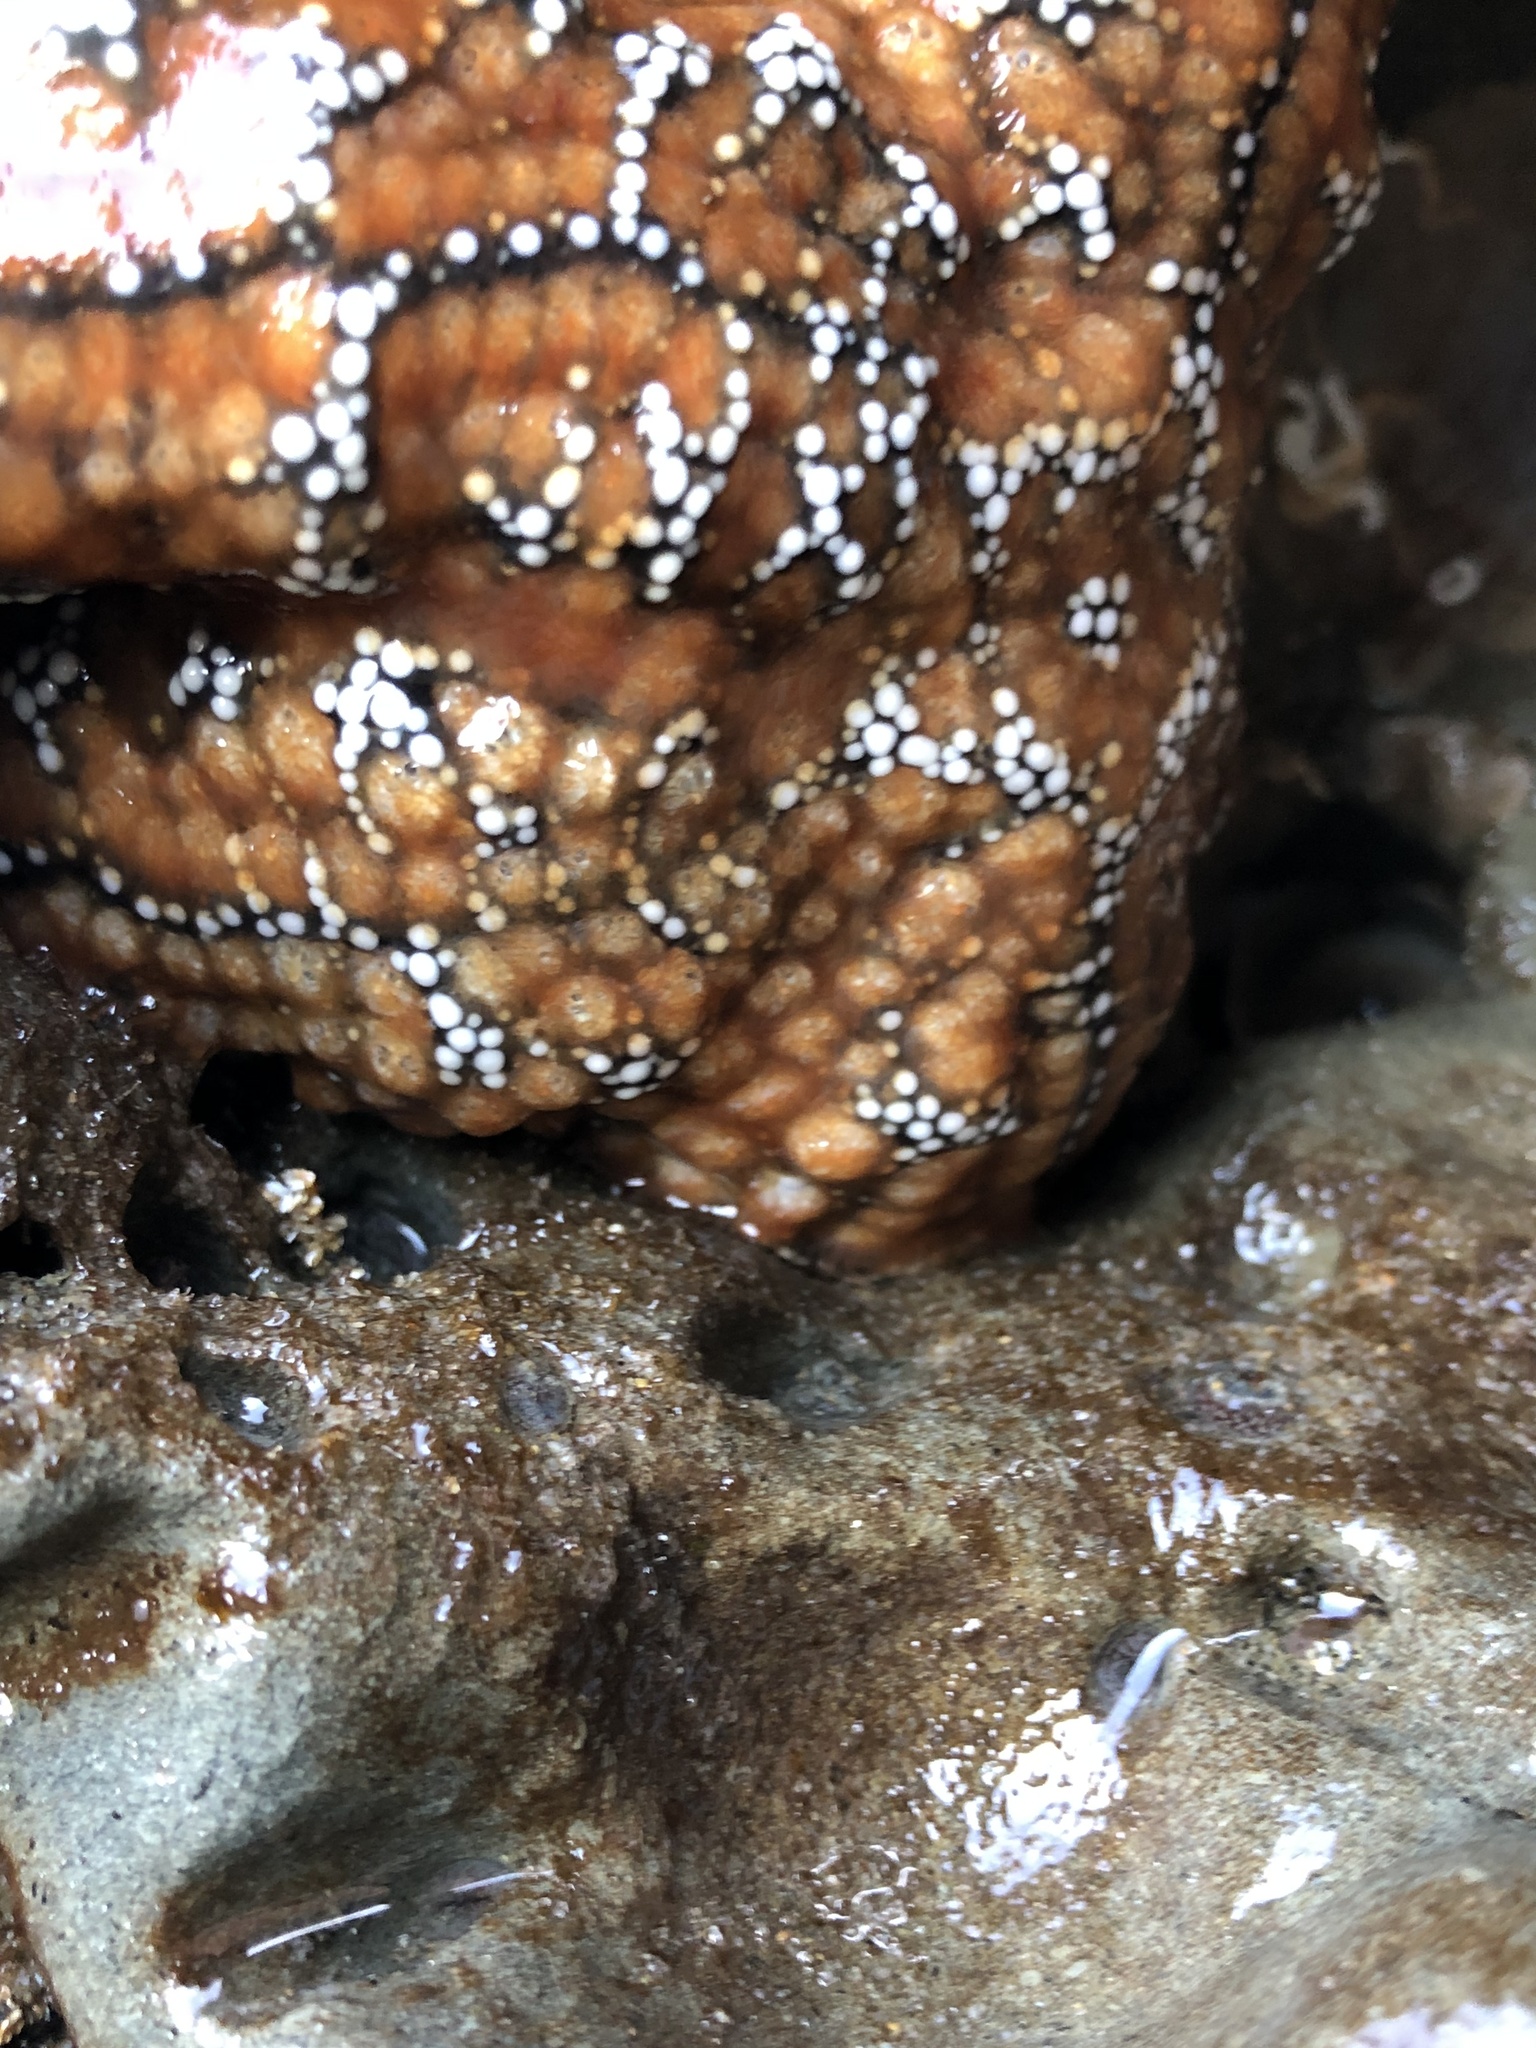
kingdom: Animalia
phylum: Echinodermata
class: Asteroidea
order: Forcipulatida
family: Asteriidae
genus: Pisaster
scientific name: Pisaster ochraceus
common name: Ochre stars
